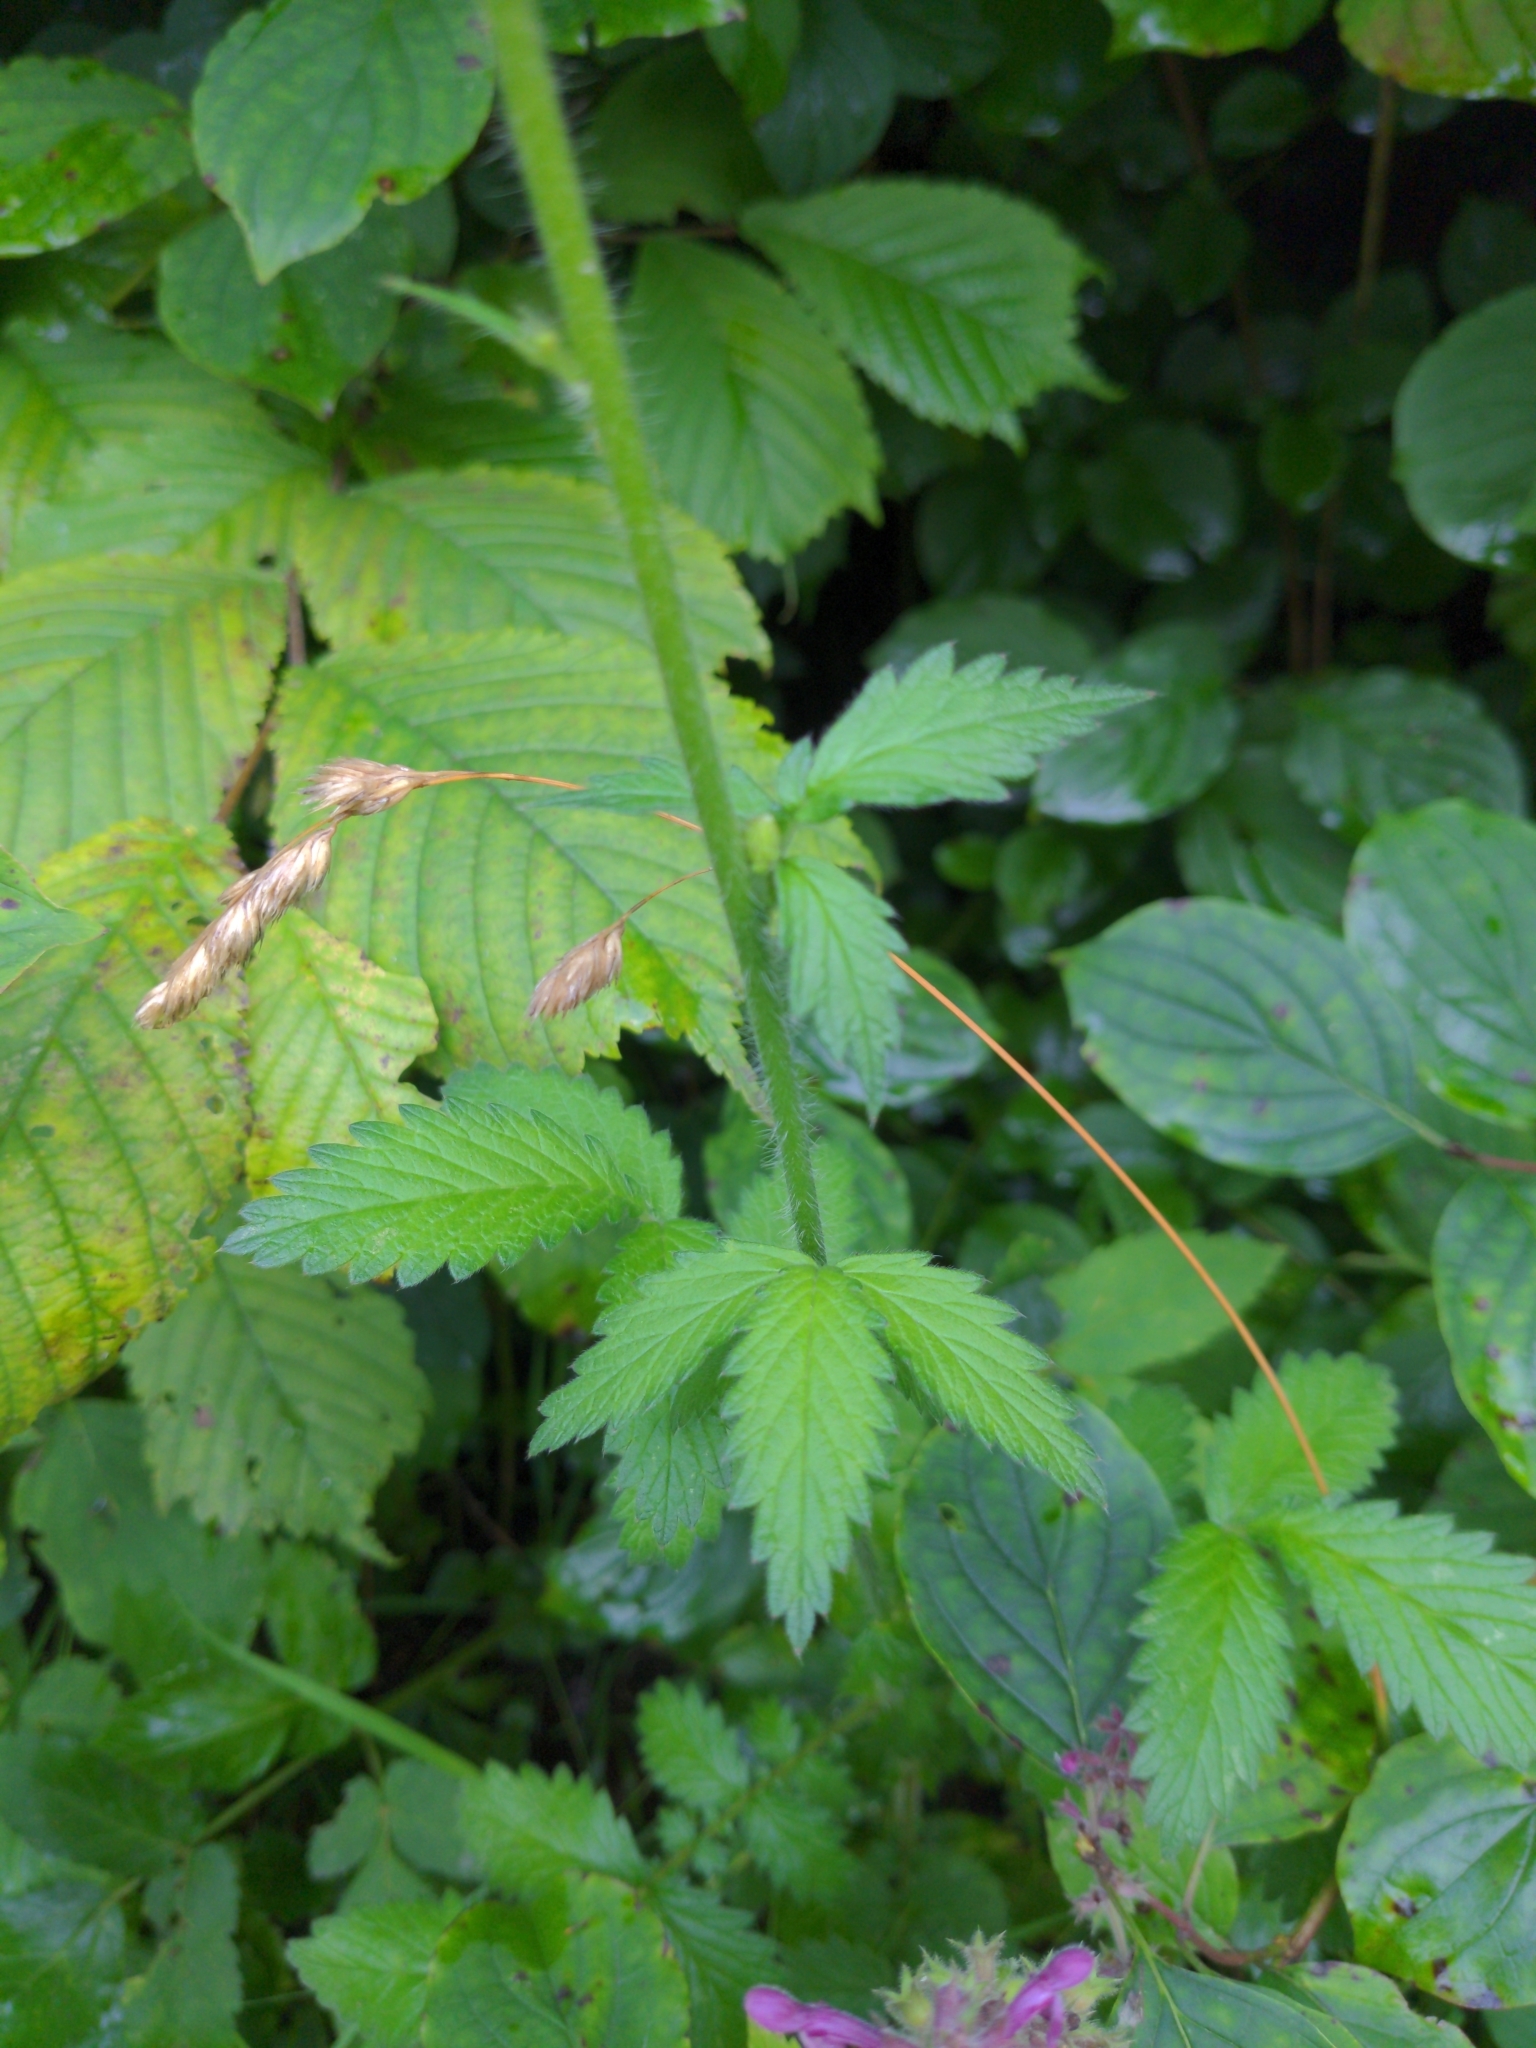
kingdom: Plantae
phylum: Tracheophyta
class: Magnoliopsida
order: Rosales
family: Rosaceae
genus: Agrimonia
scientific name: Agrimonia eupatoria
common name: Agrimony
